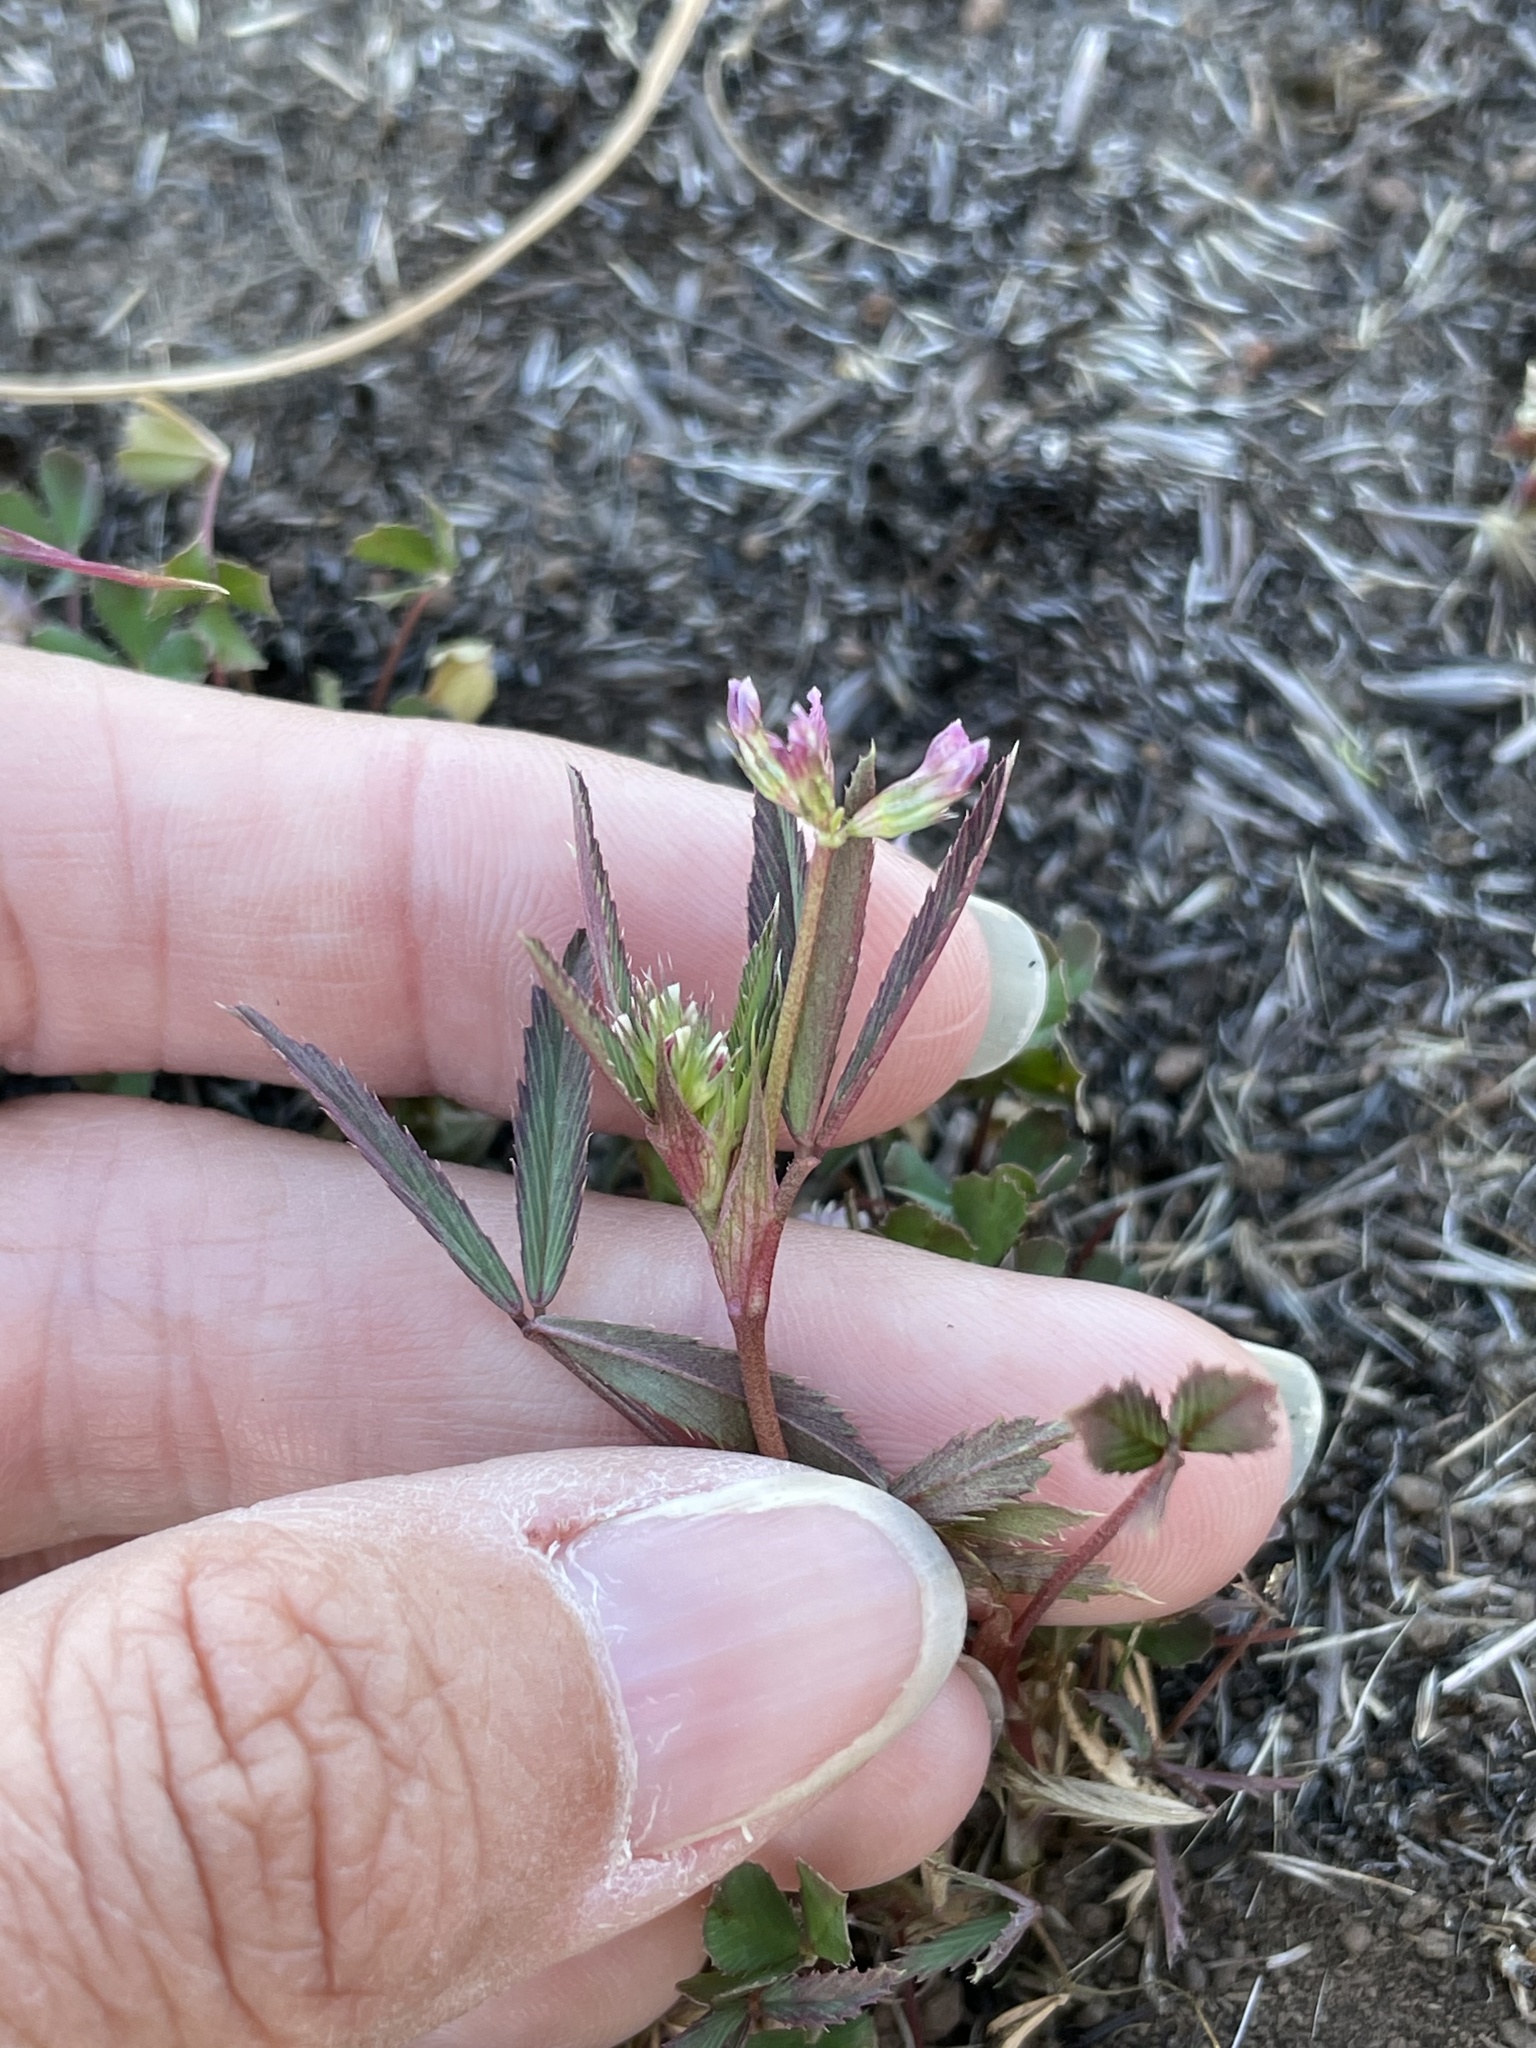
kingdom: Plantae
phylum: Tracheophyta
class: Magnoliopsida
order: Fabales
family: Fabaceae
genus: Trifolium
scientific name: Trifolium palmeri
